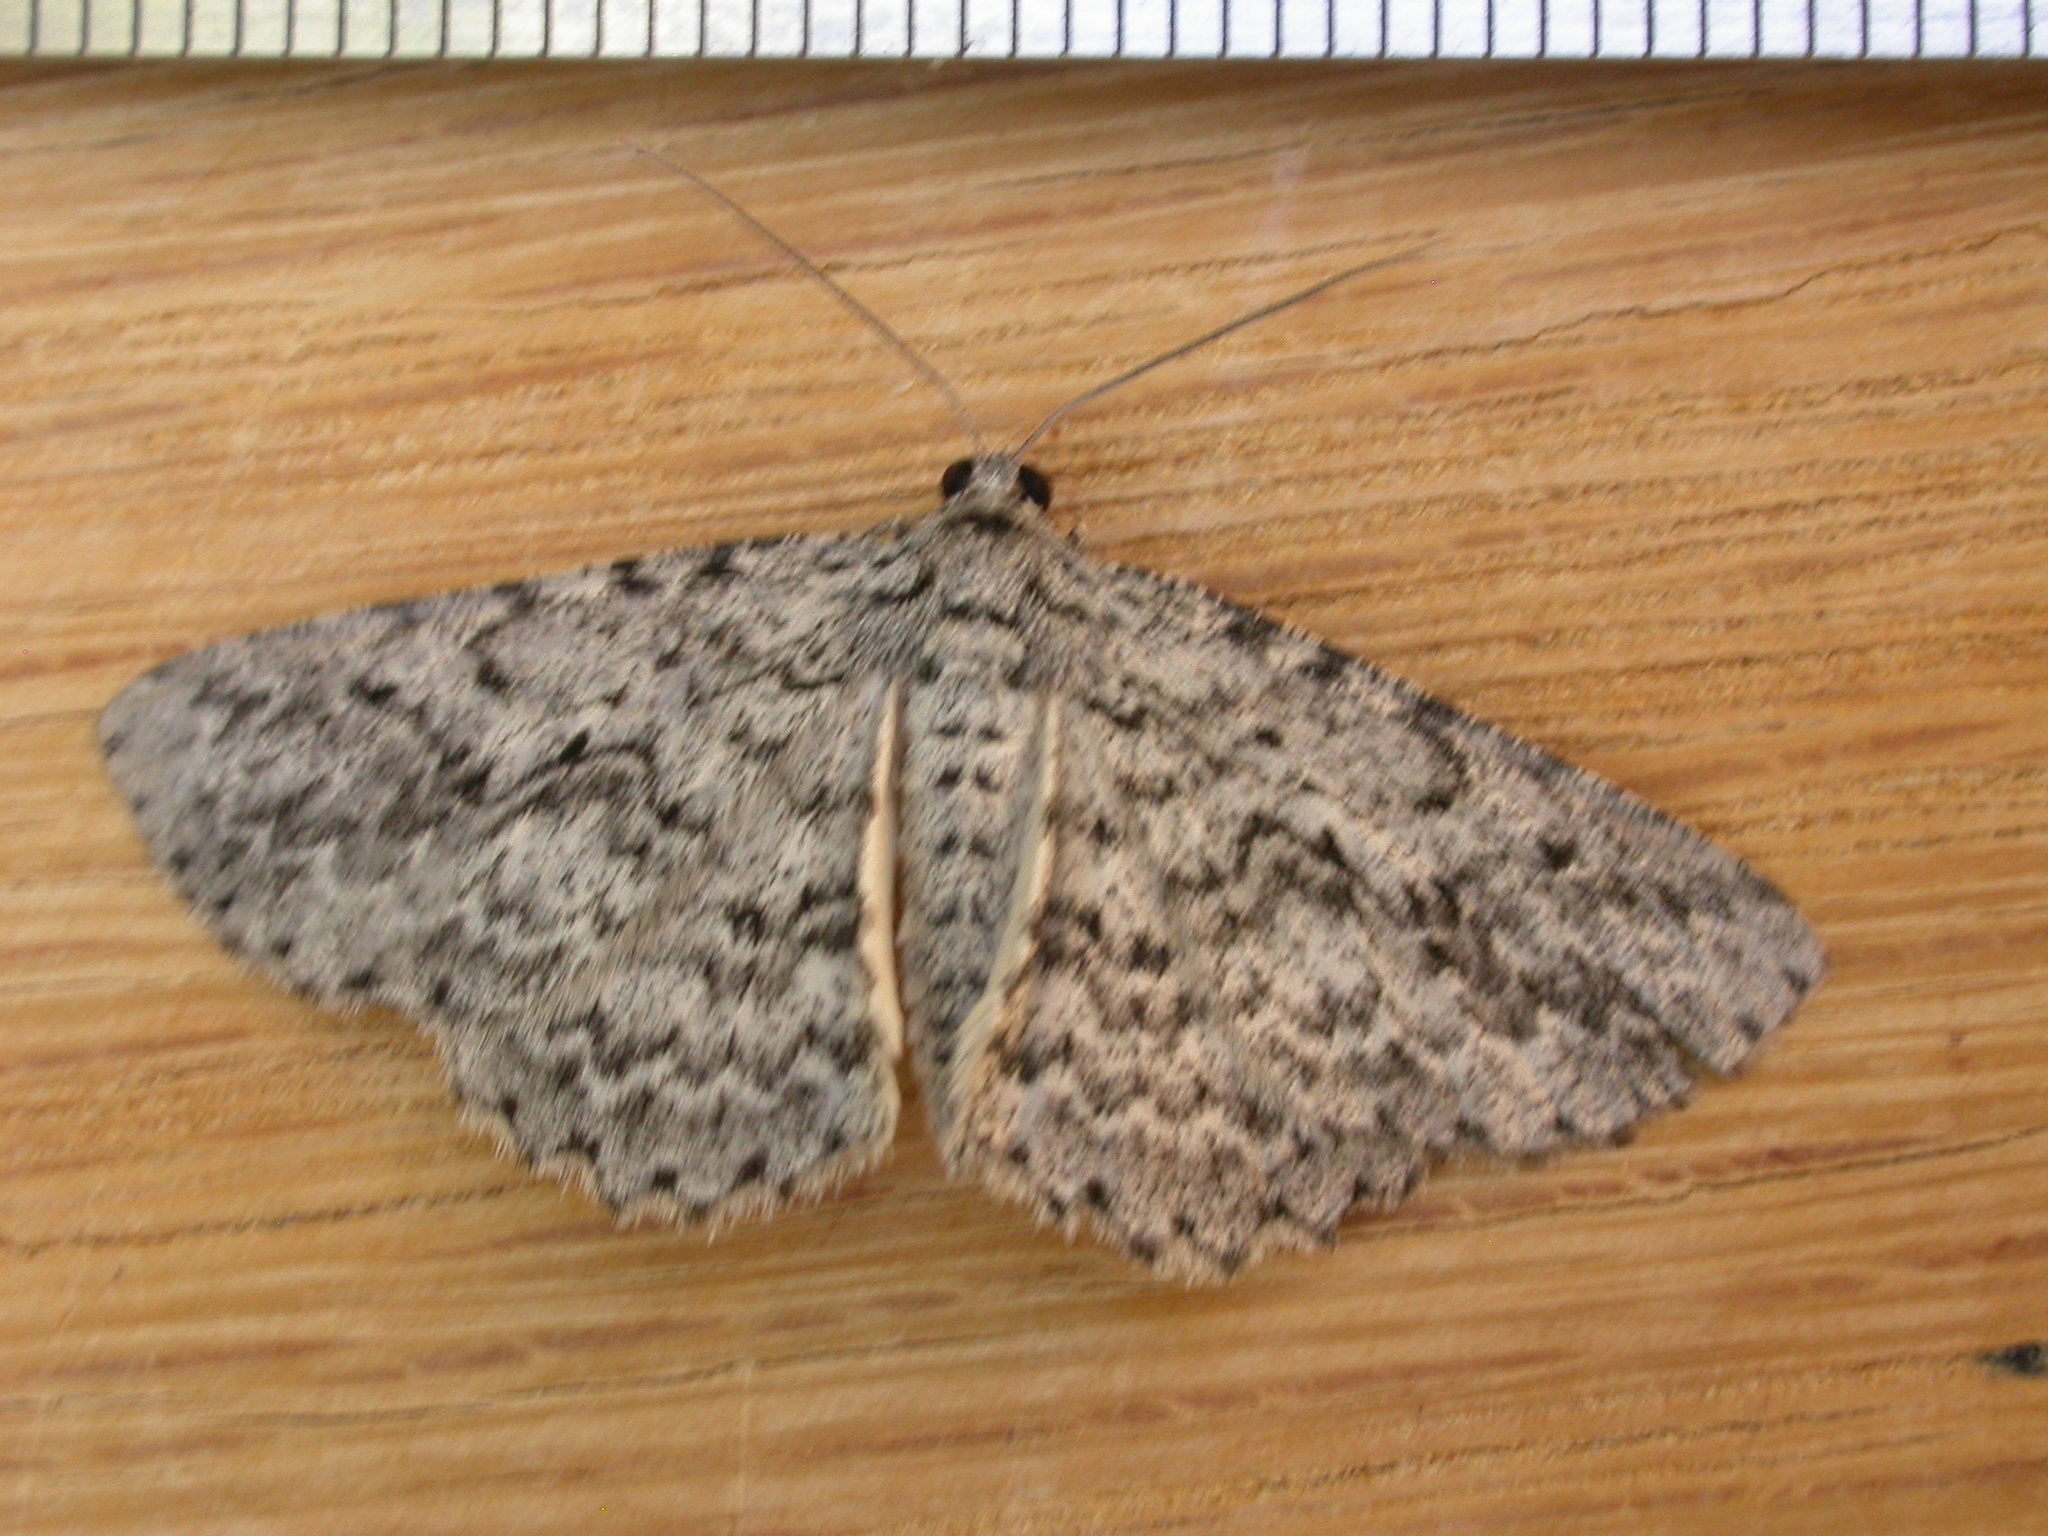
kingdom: Animalia
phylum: Arthropoda
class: Insecta
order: Lepidoptera
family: Geometridae
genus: Psilosticha
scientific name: Psilosticha mactaria
